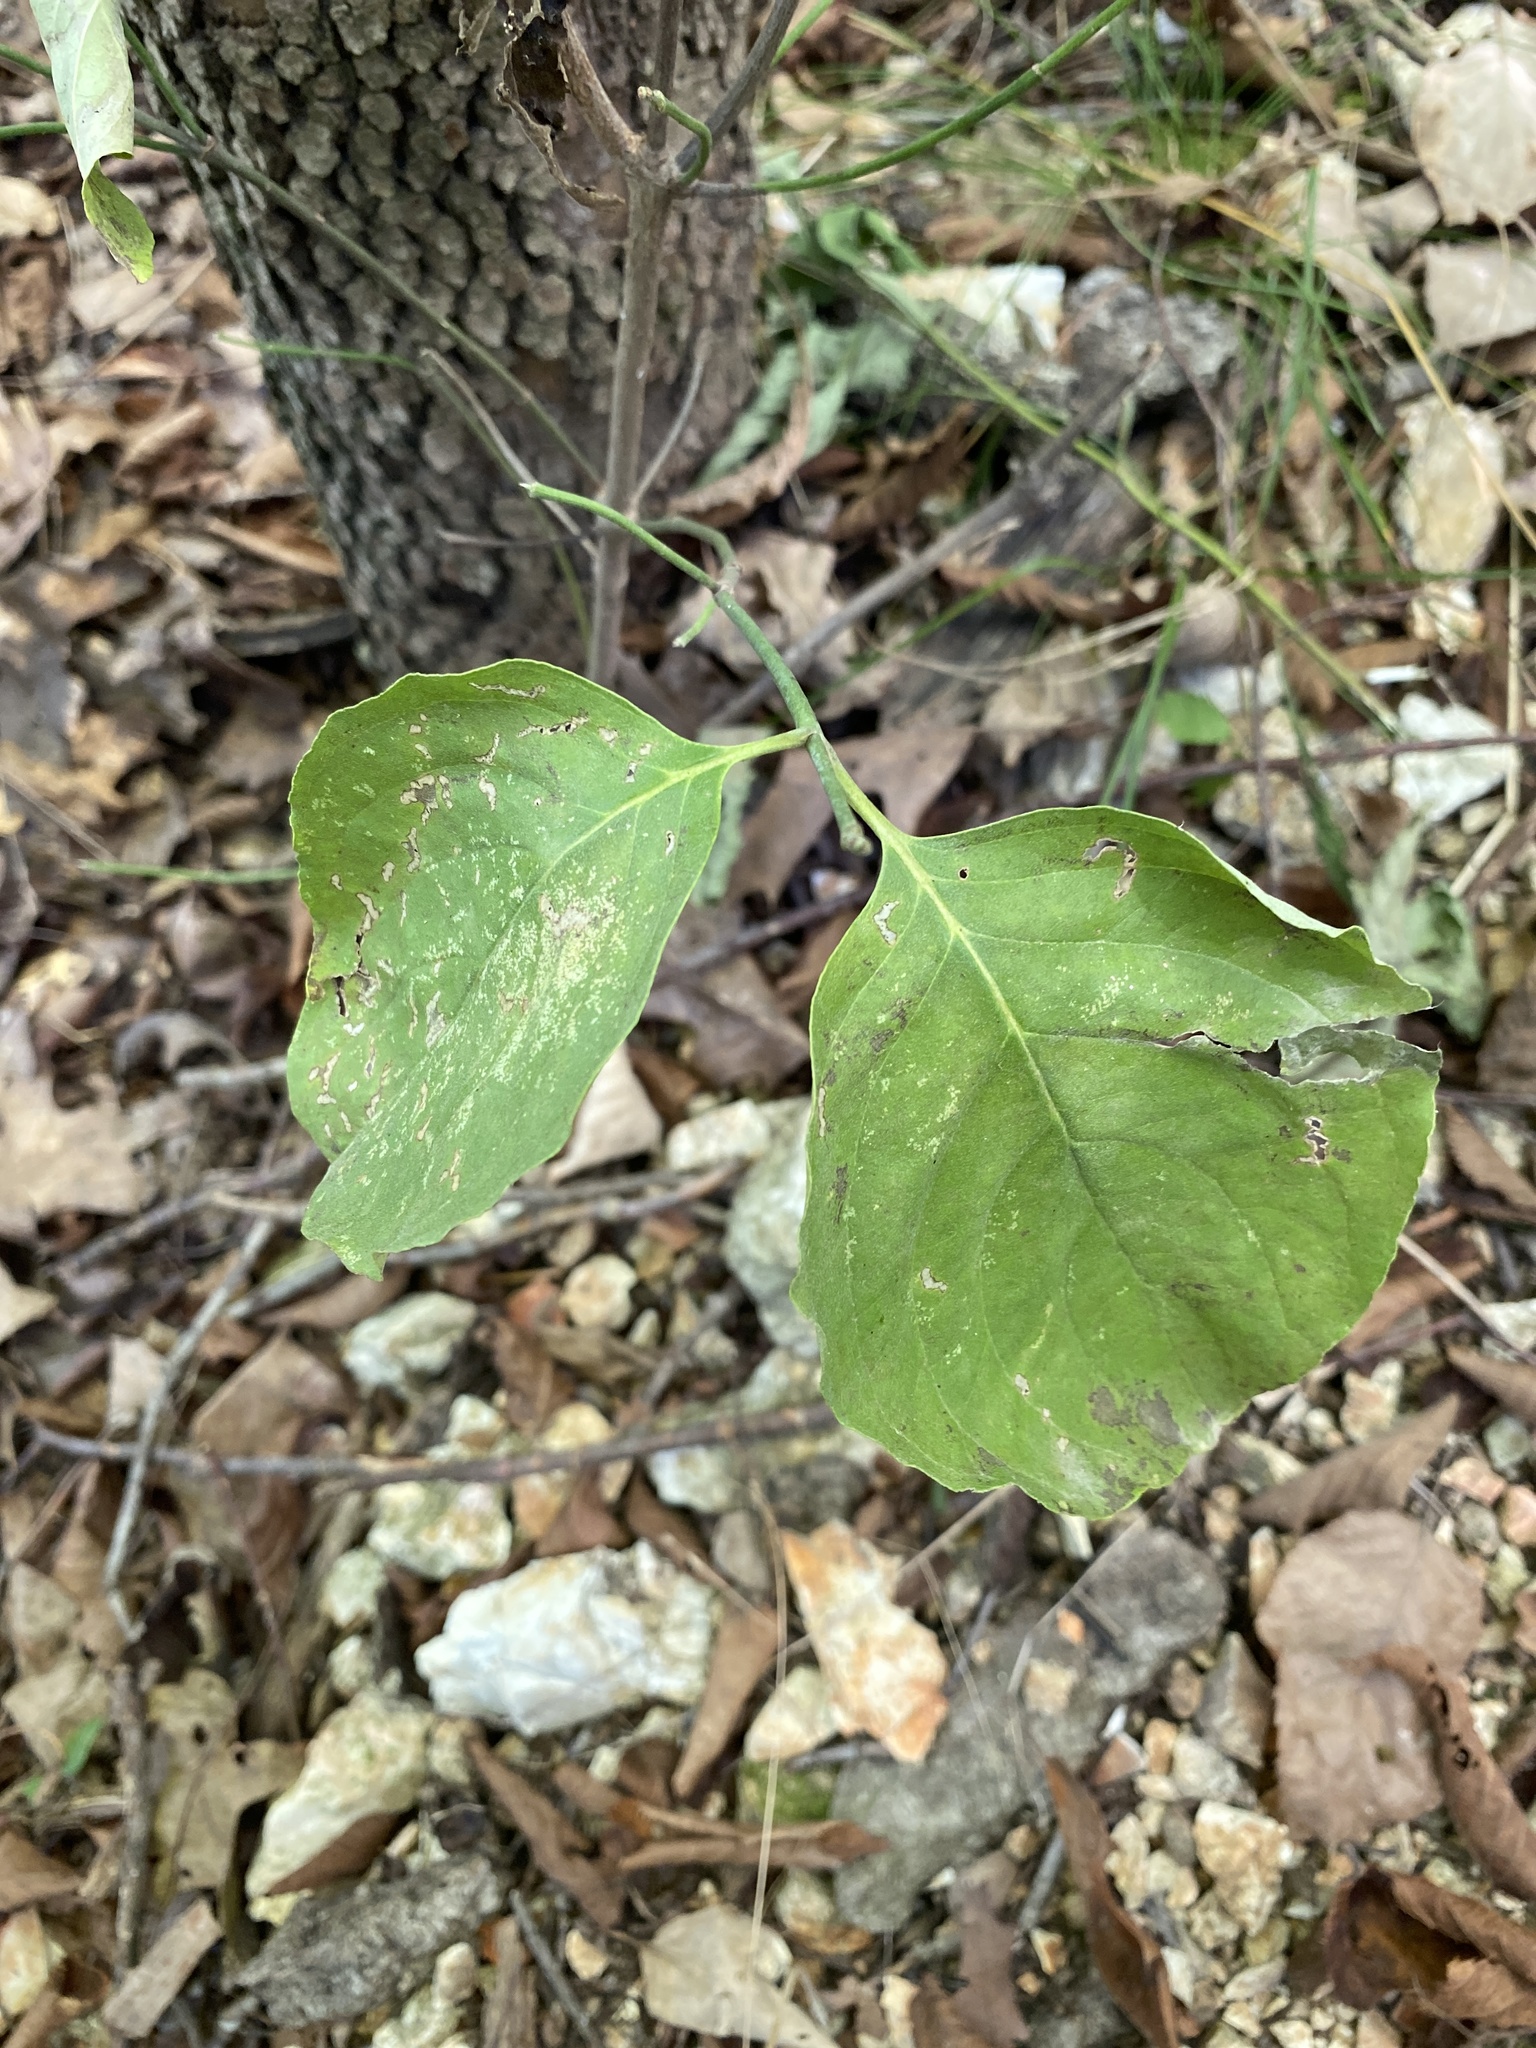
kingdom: Plantae
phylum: Tracheophyta
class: Magnoliopsida
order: Cornales
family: Cornaceae
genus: Cornus
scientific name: Cornus florida
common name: Flowering dogwood
